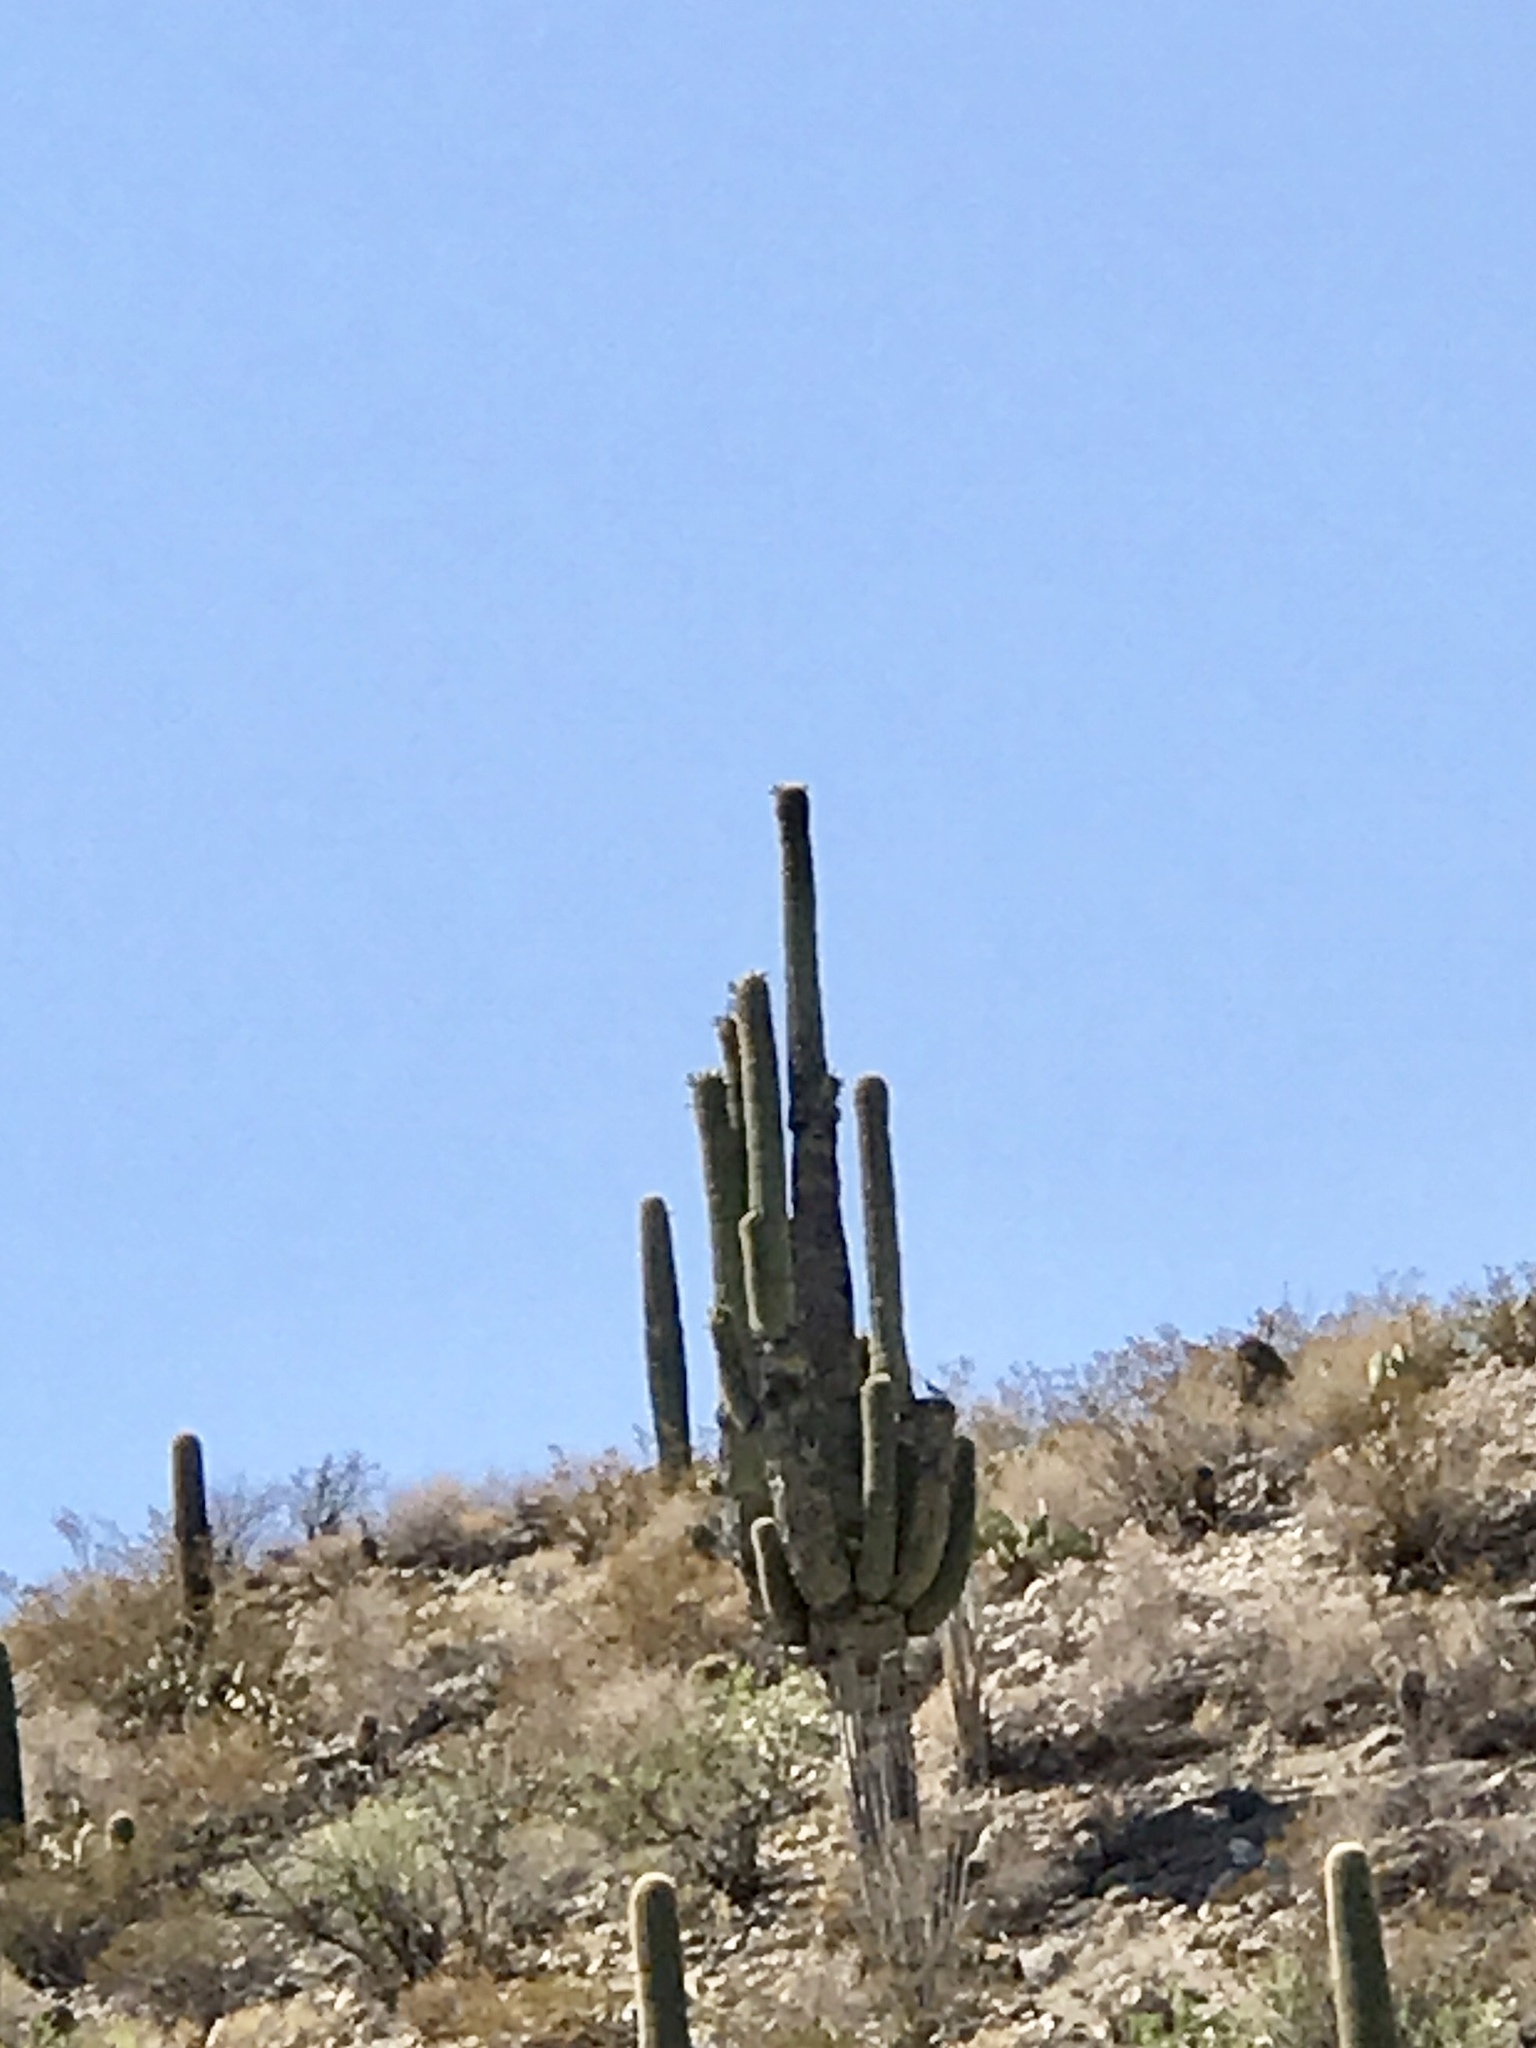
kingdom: Plantae
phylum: Tracheophyta
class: Magnoliopsida
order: Caryophyllales
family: Cactaceae
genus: Carnegiea
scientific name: Carnegiea gigantea
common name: Saguaro
